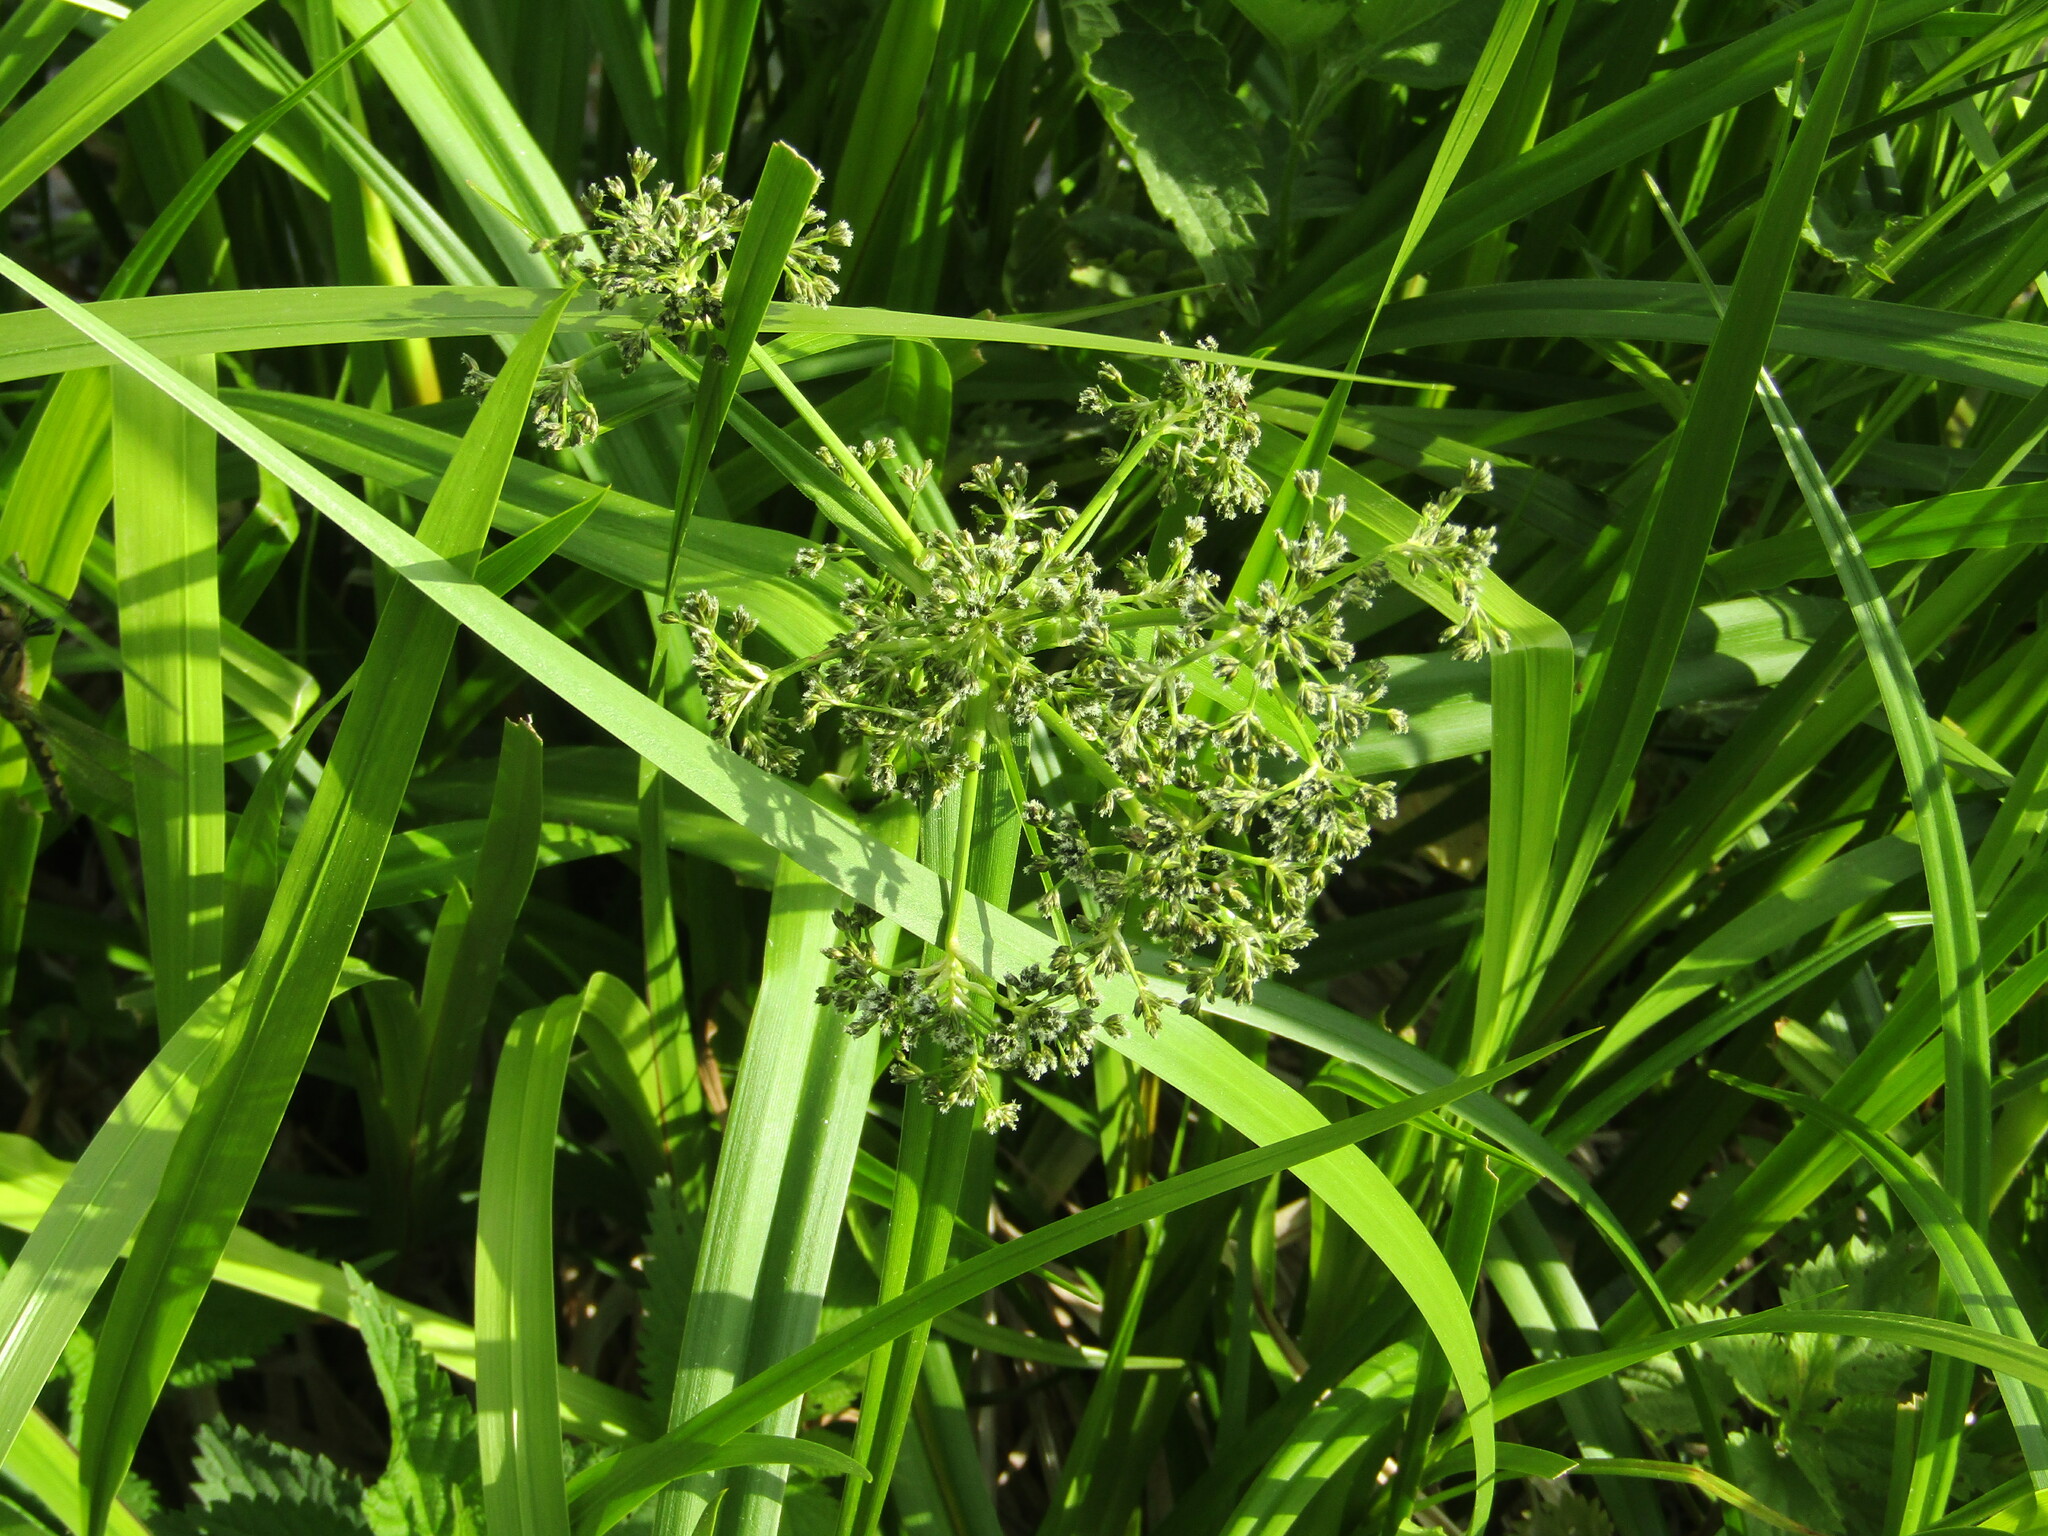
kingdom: Plantae
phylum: Tracheophyta
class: Liliopsida
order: Poales
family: Cyperaceae
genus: Scirpus
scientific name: Scirpus sylvaticus
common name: Wood club-rush
